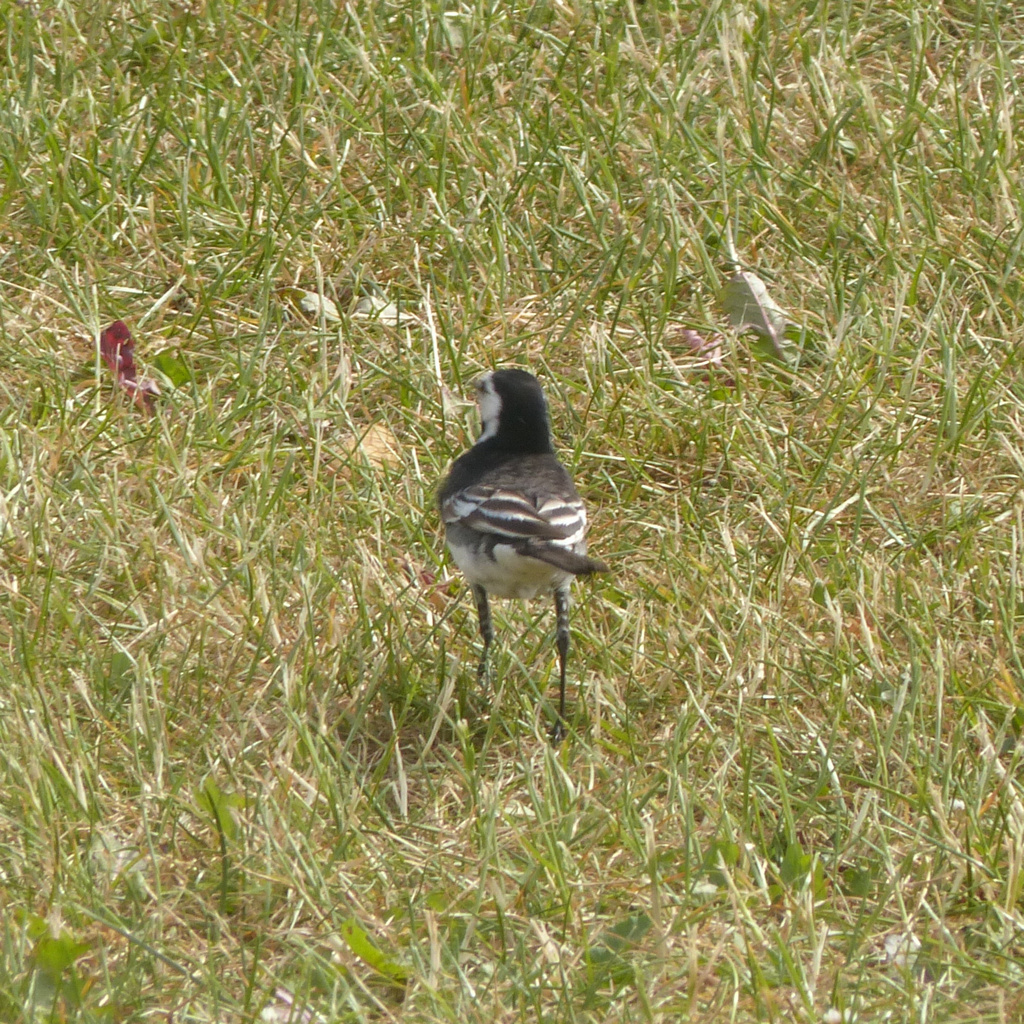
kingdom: Animalia
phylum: Chordata
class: Aves
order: Passeriformes
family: Motacillidae
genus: Motacilla
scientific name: Motacilla alba
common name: White wagtail
